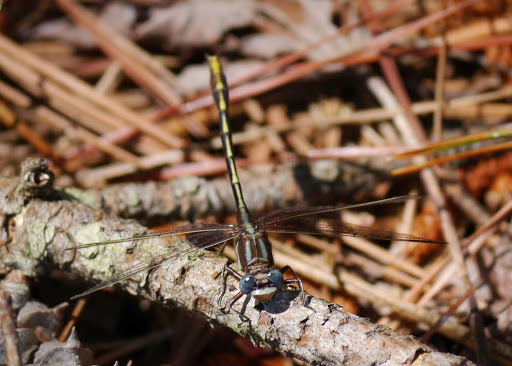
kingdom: Animalia
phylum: Arthropoda
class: Insecta
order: Odonata
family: Gomphidae
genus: Phanogomphus
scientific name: Phanogomphus exilis
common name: Lancet clubtail
